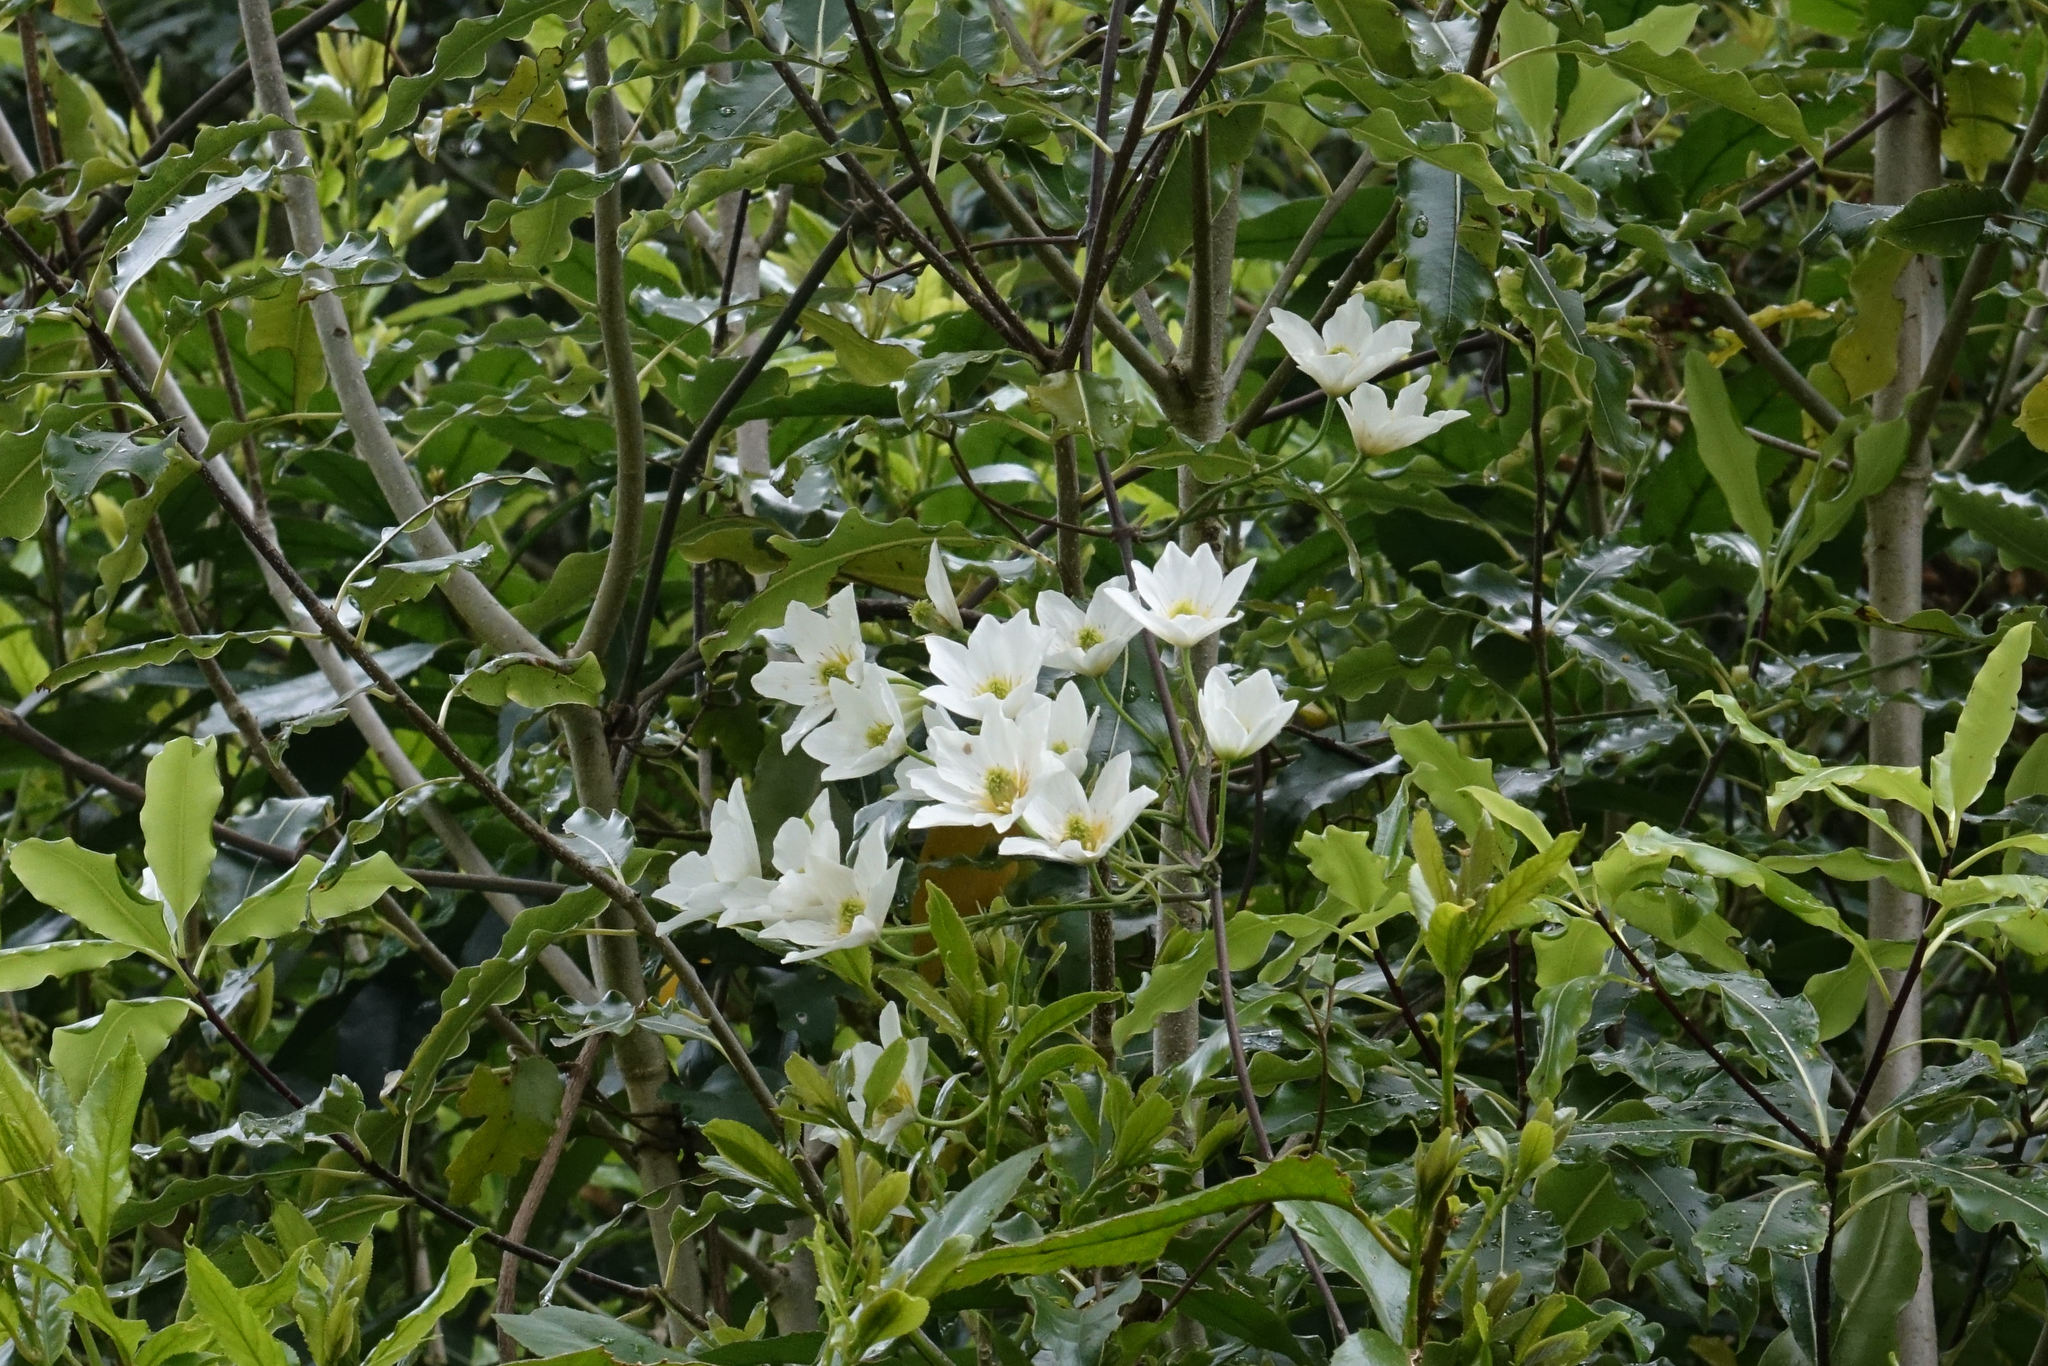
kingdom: Plantae
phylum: Tracheophyta
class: Magnoliopsida
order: Ranunculales
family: Ranunculaceae
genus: Clematis
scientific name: Clematis paniculata
